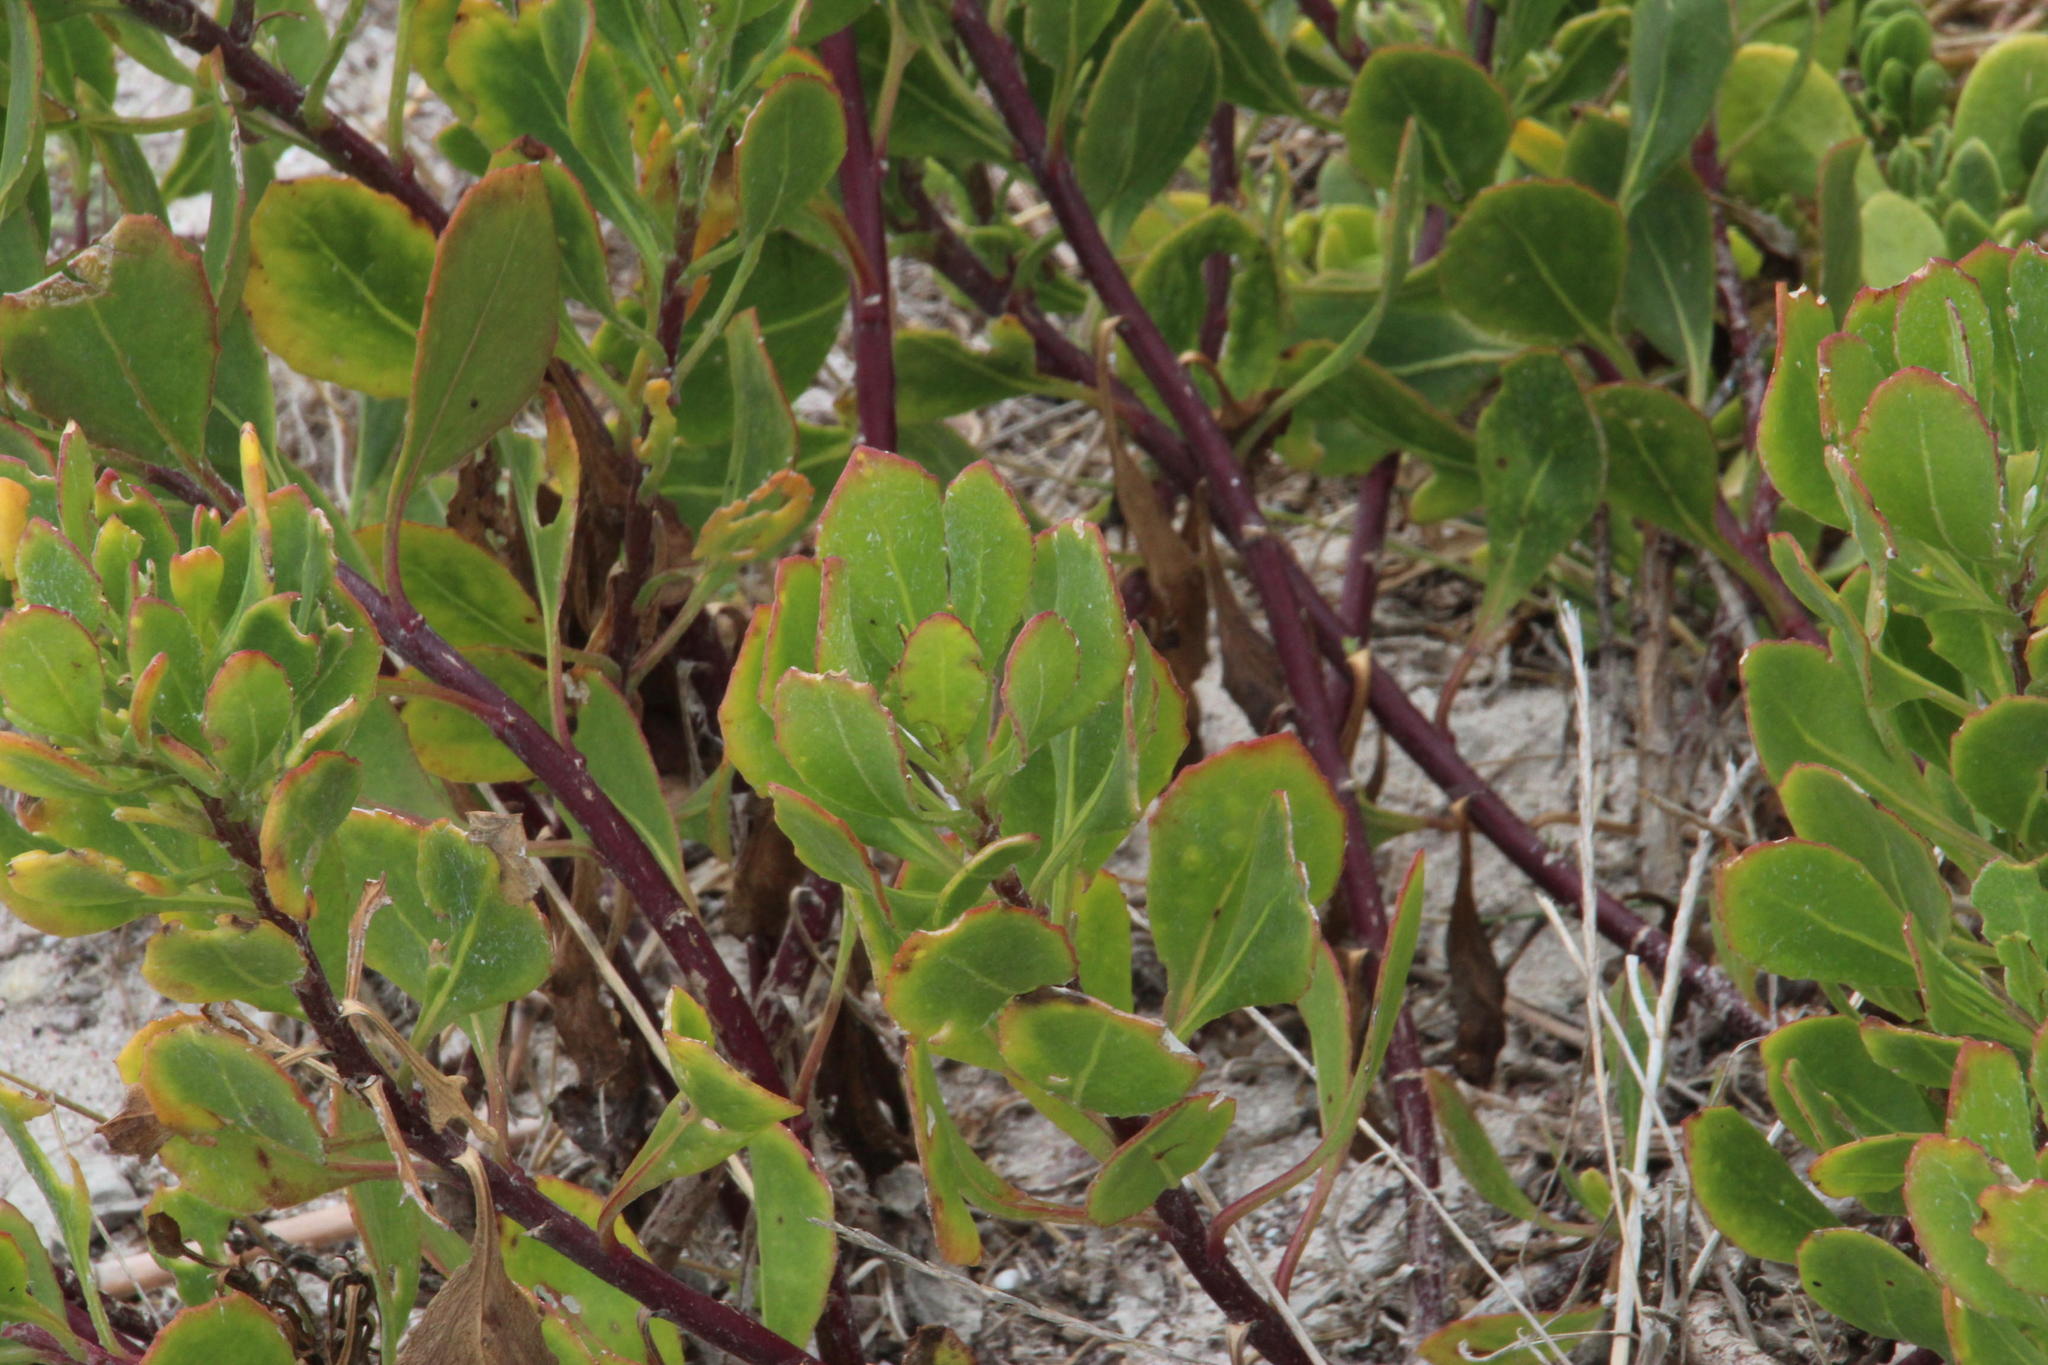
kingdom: Plantae
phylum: Tracheophyta
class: Magnoliopsida
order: Asterales
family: Asteraceae
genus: Osteospermum
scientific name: Osteospermum moniliferum
